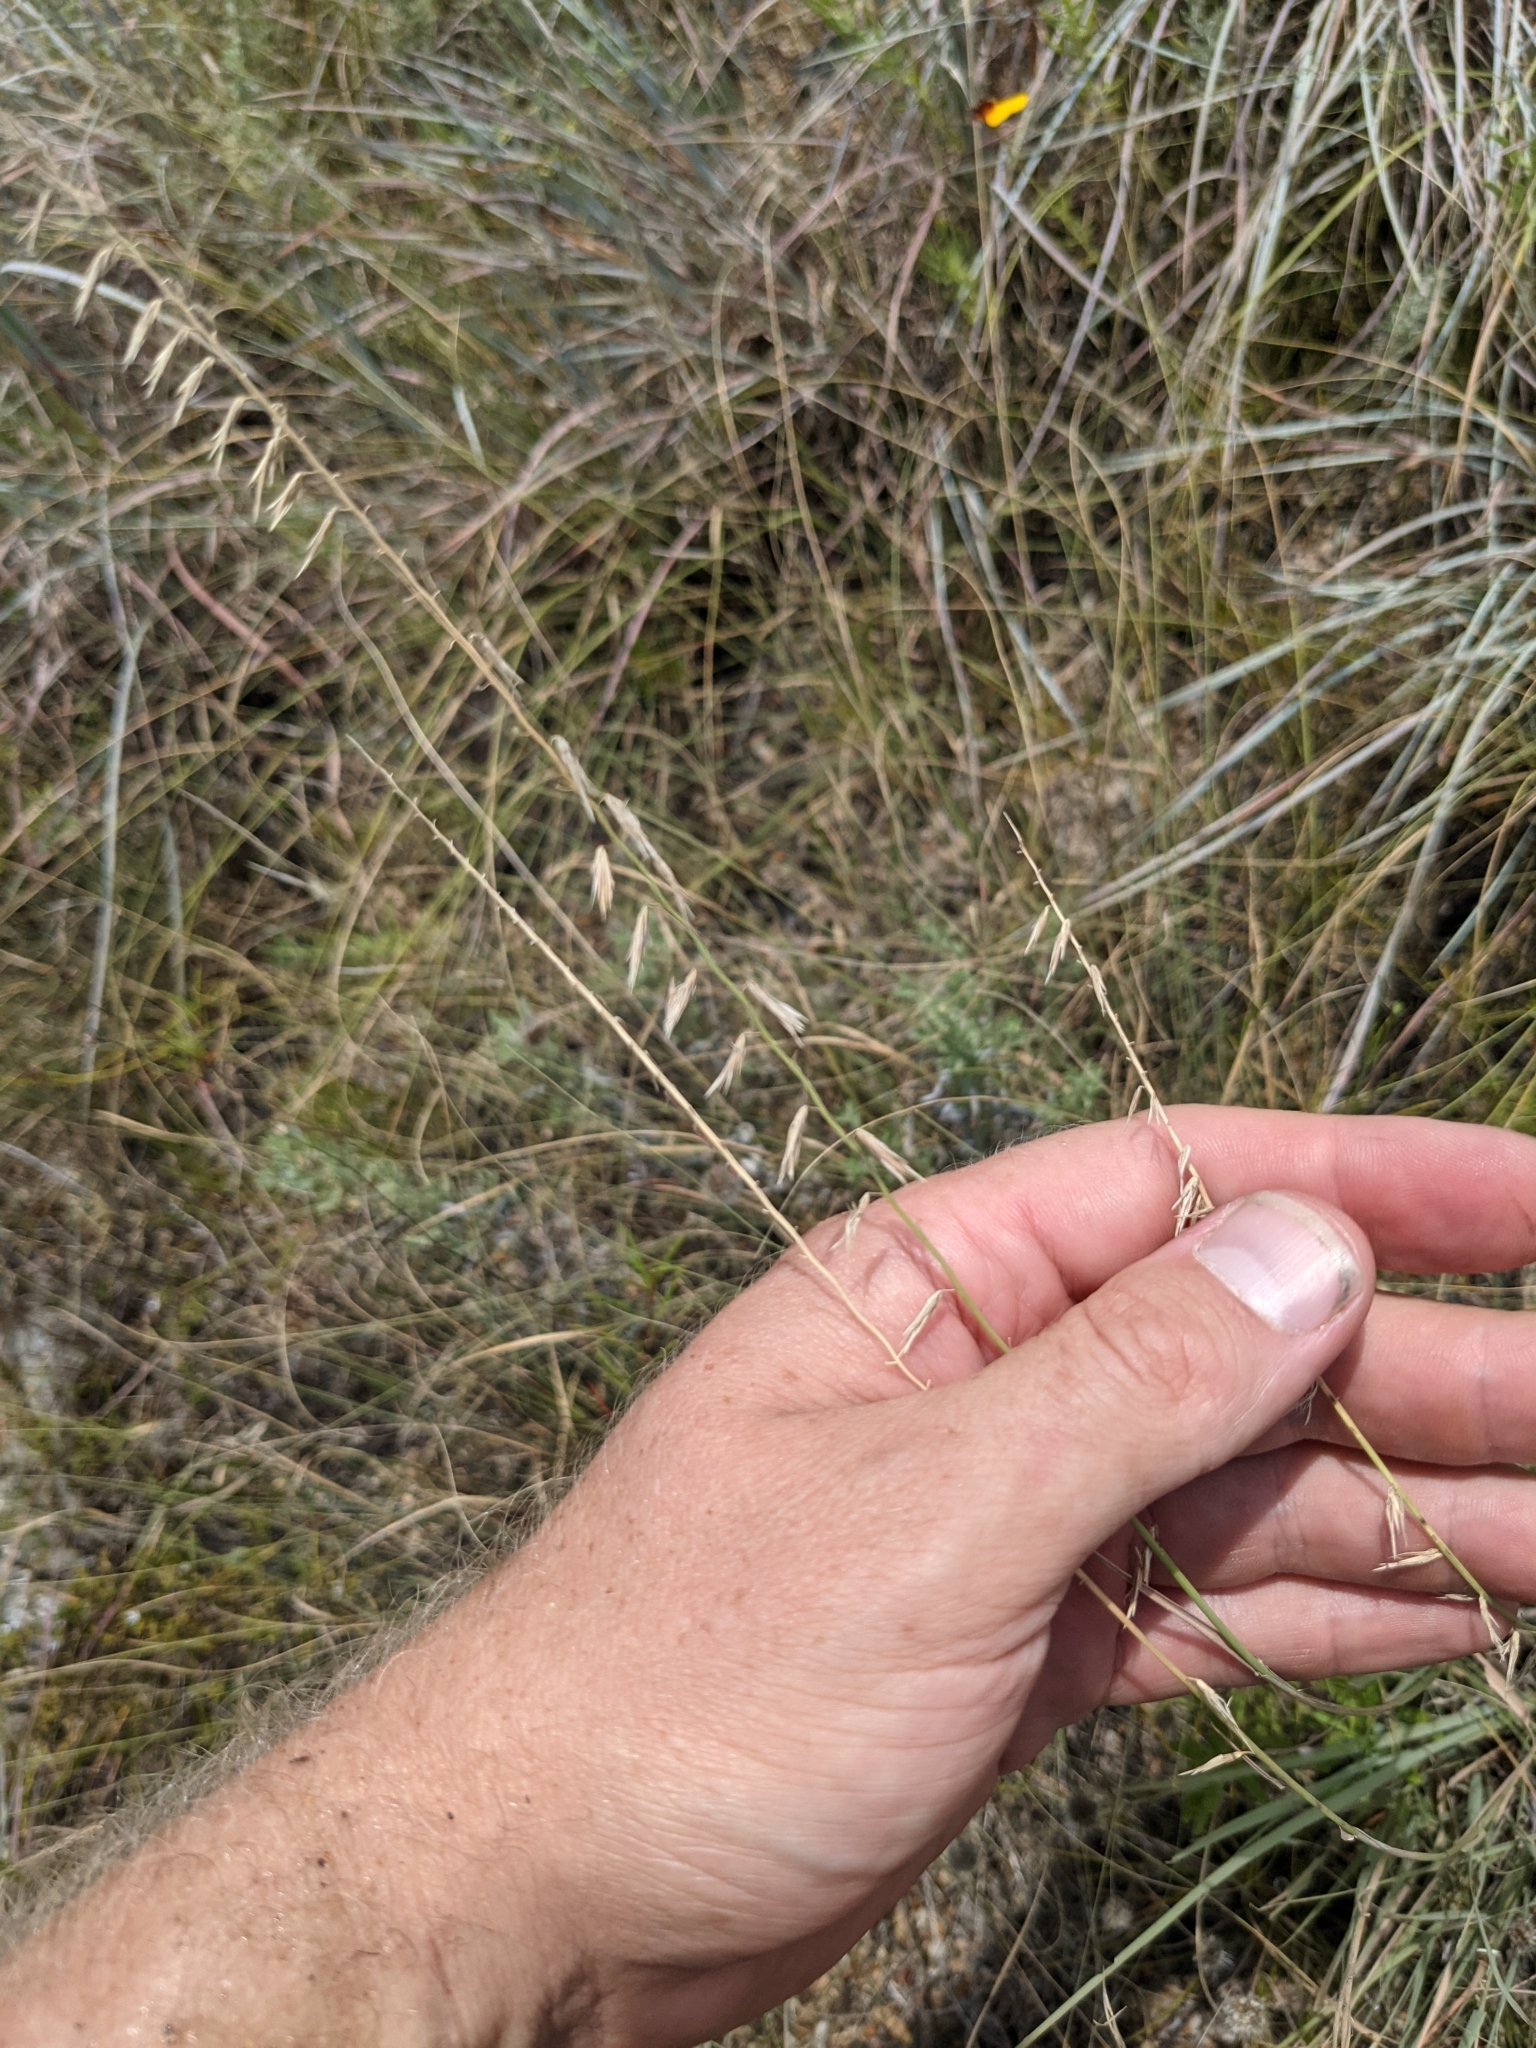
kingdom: Plantae
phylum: Tracheophyta
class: Liliopsida
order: Poales
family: Poaceae
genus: Bouteloua
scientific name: Bouteloua curtipendula
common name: Side-oats grama
